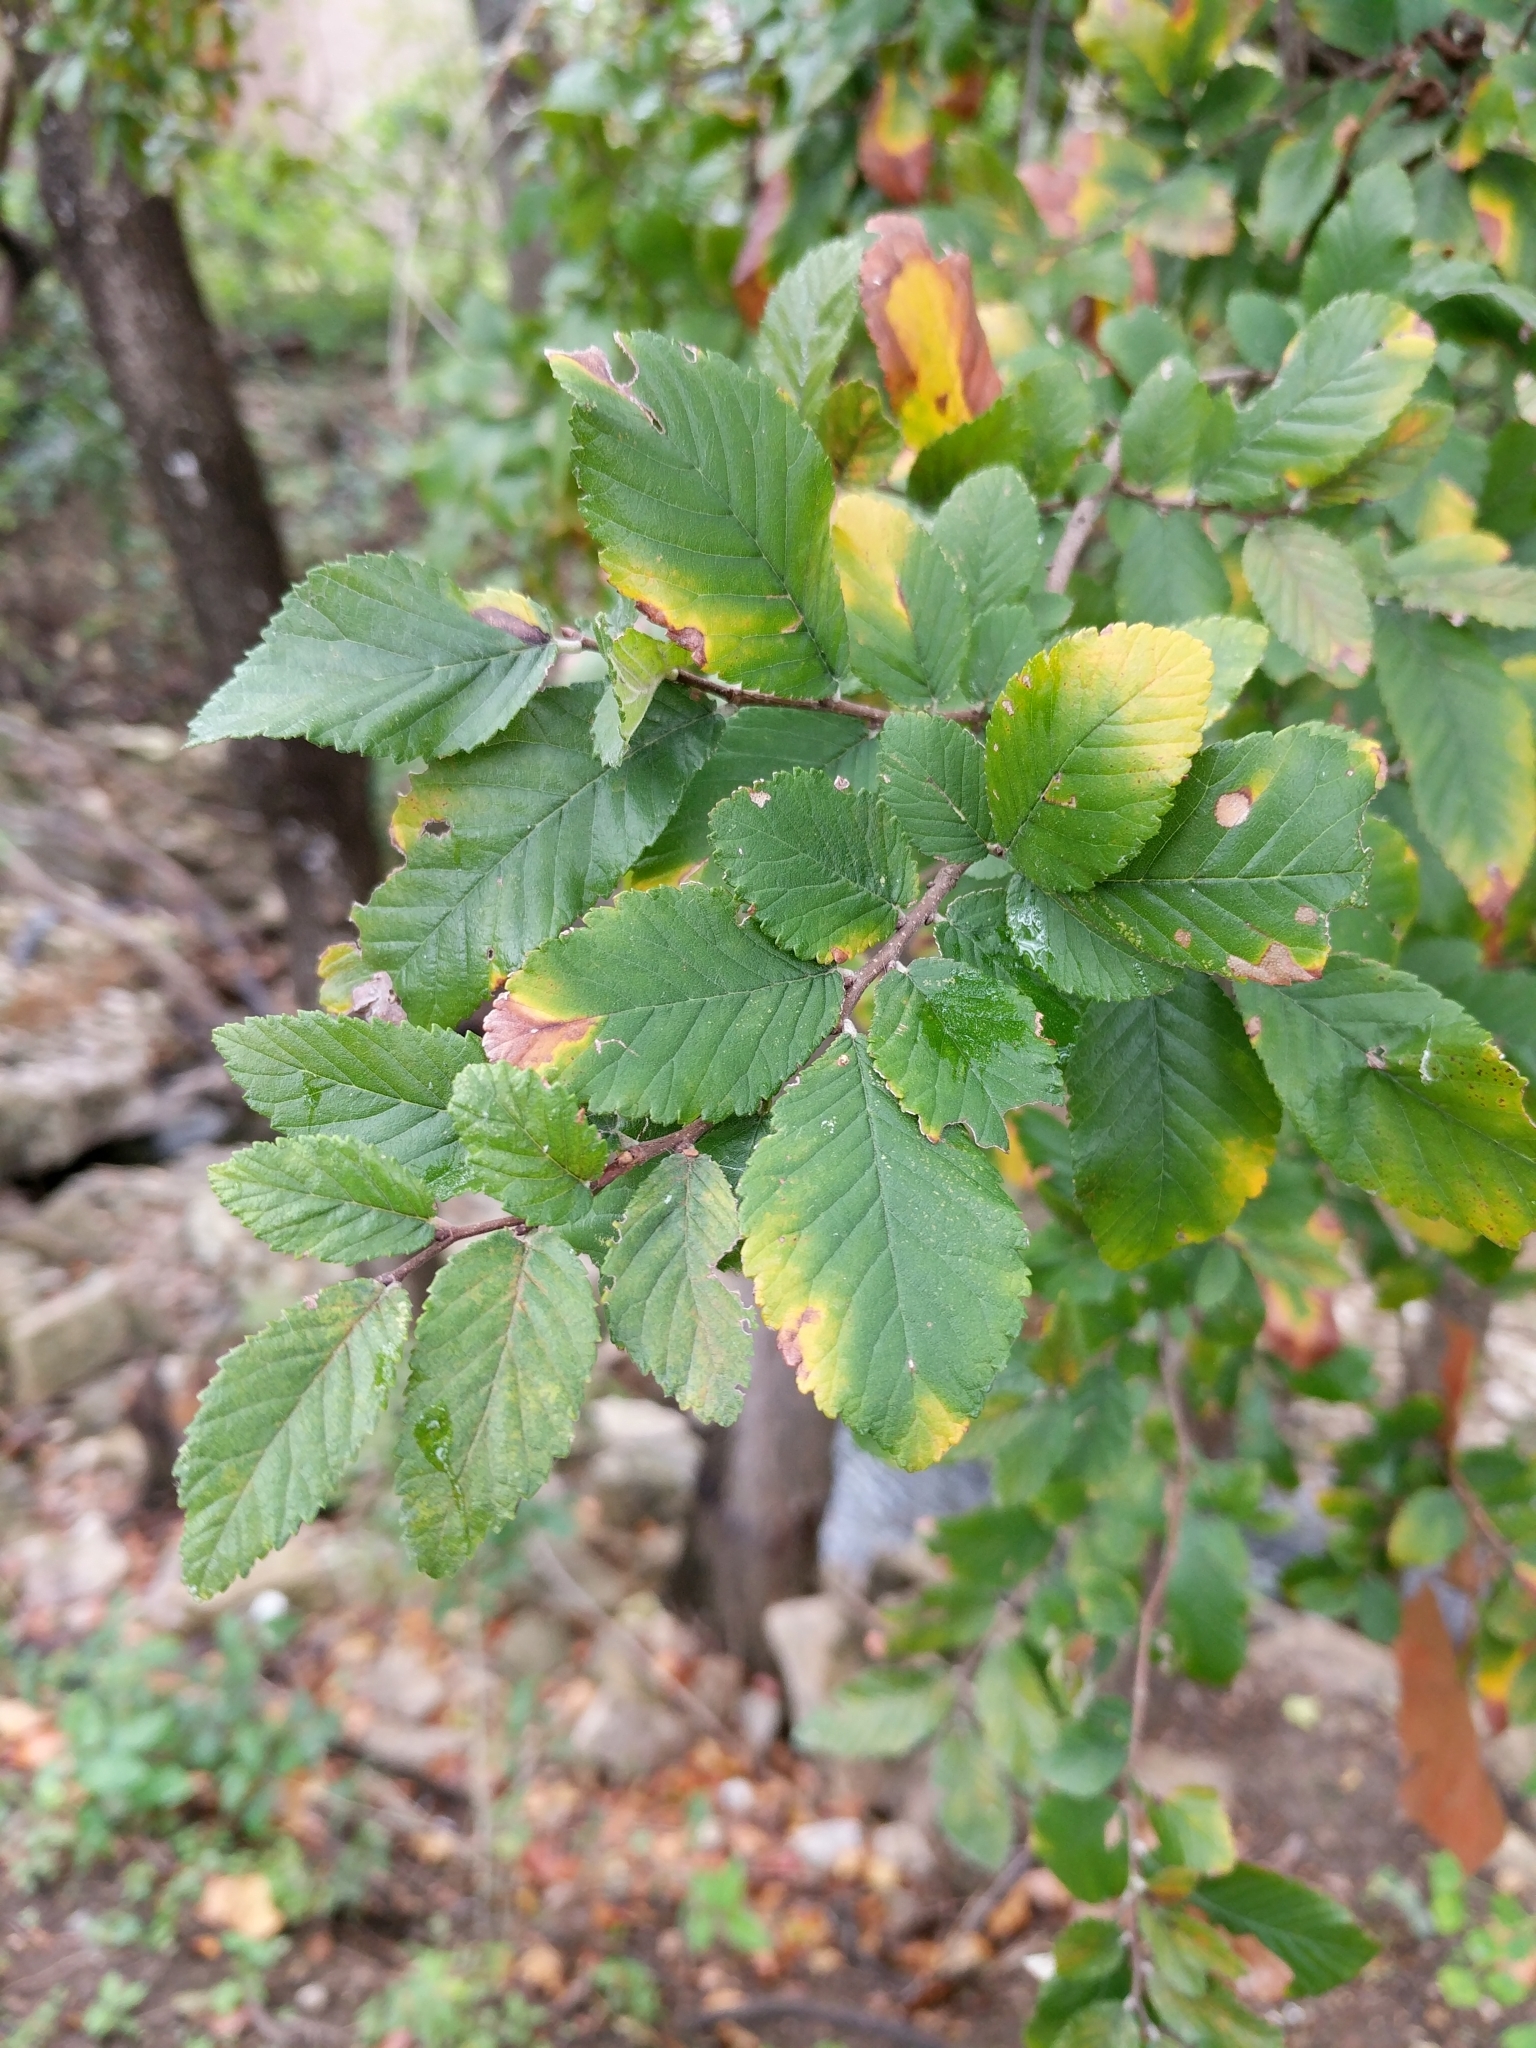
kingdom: Plantae
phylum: Tracheophyta
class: Magnoliopsida
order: Rosales
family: Ulmaceae
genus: Ulmus
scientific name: Ulmus crassifolia
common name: Basket elm
